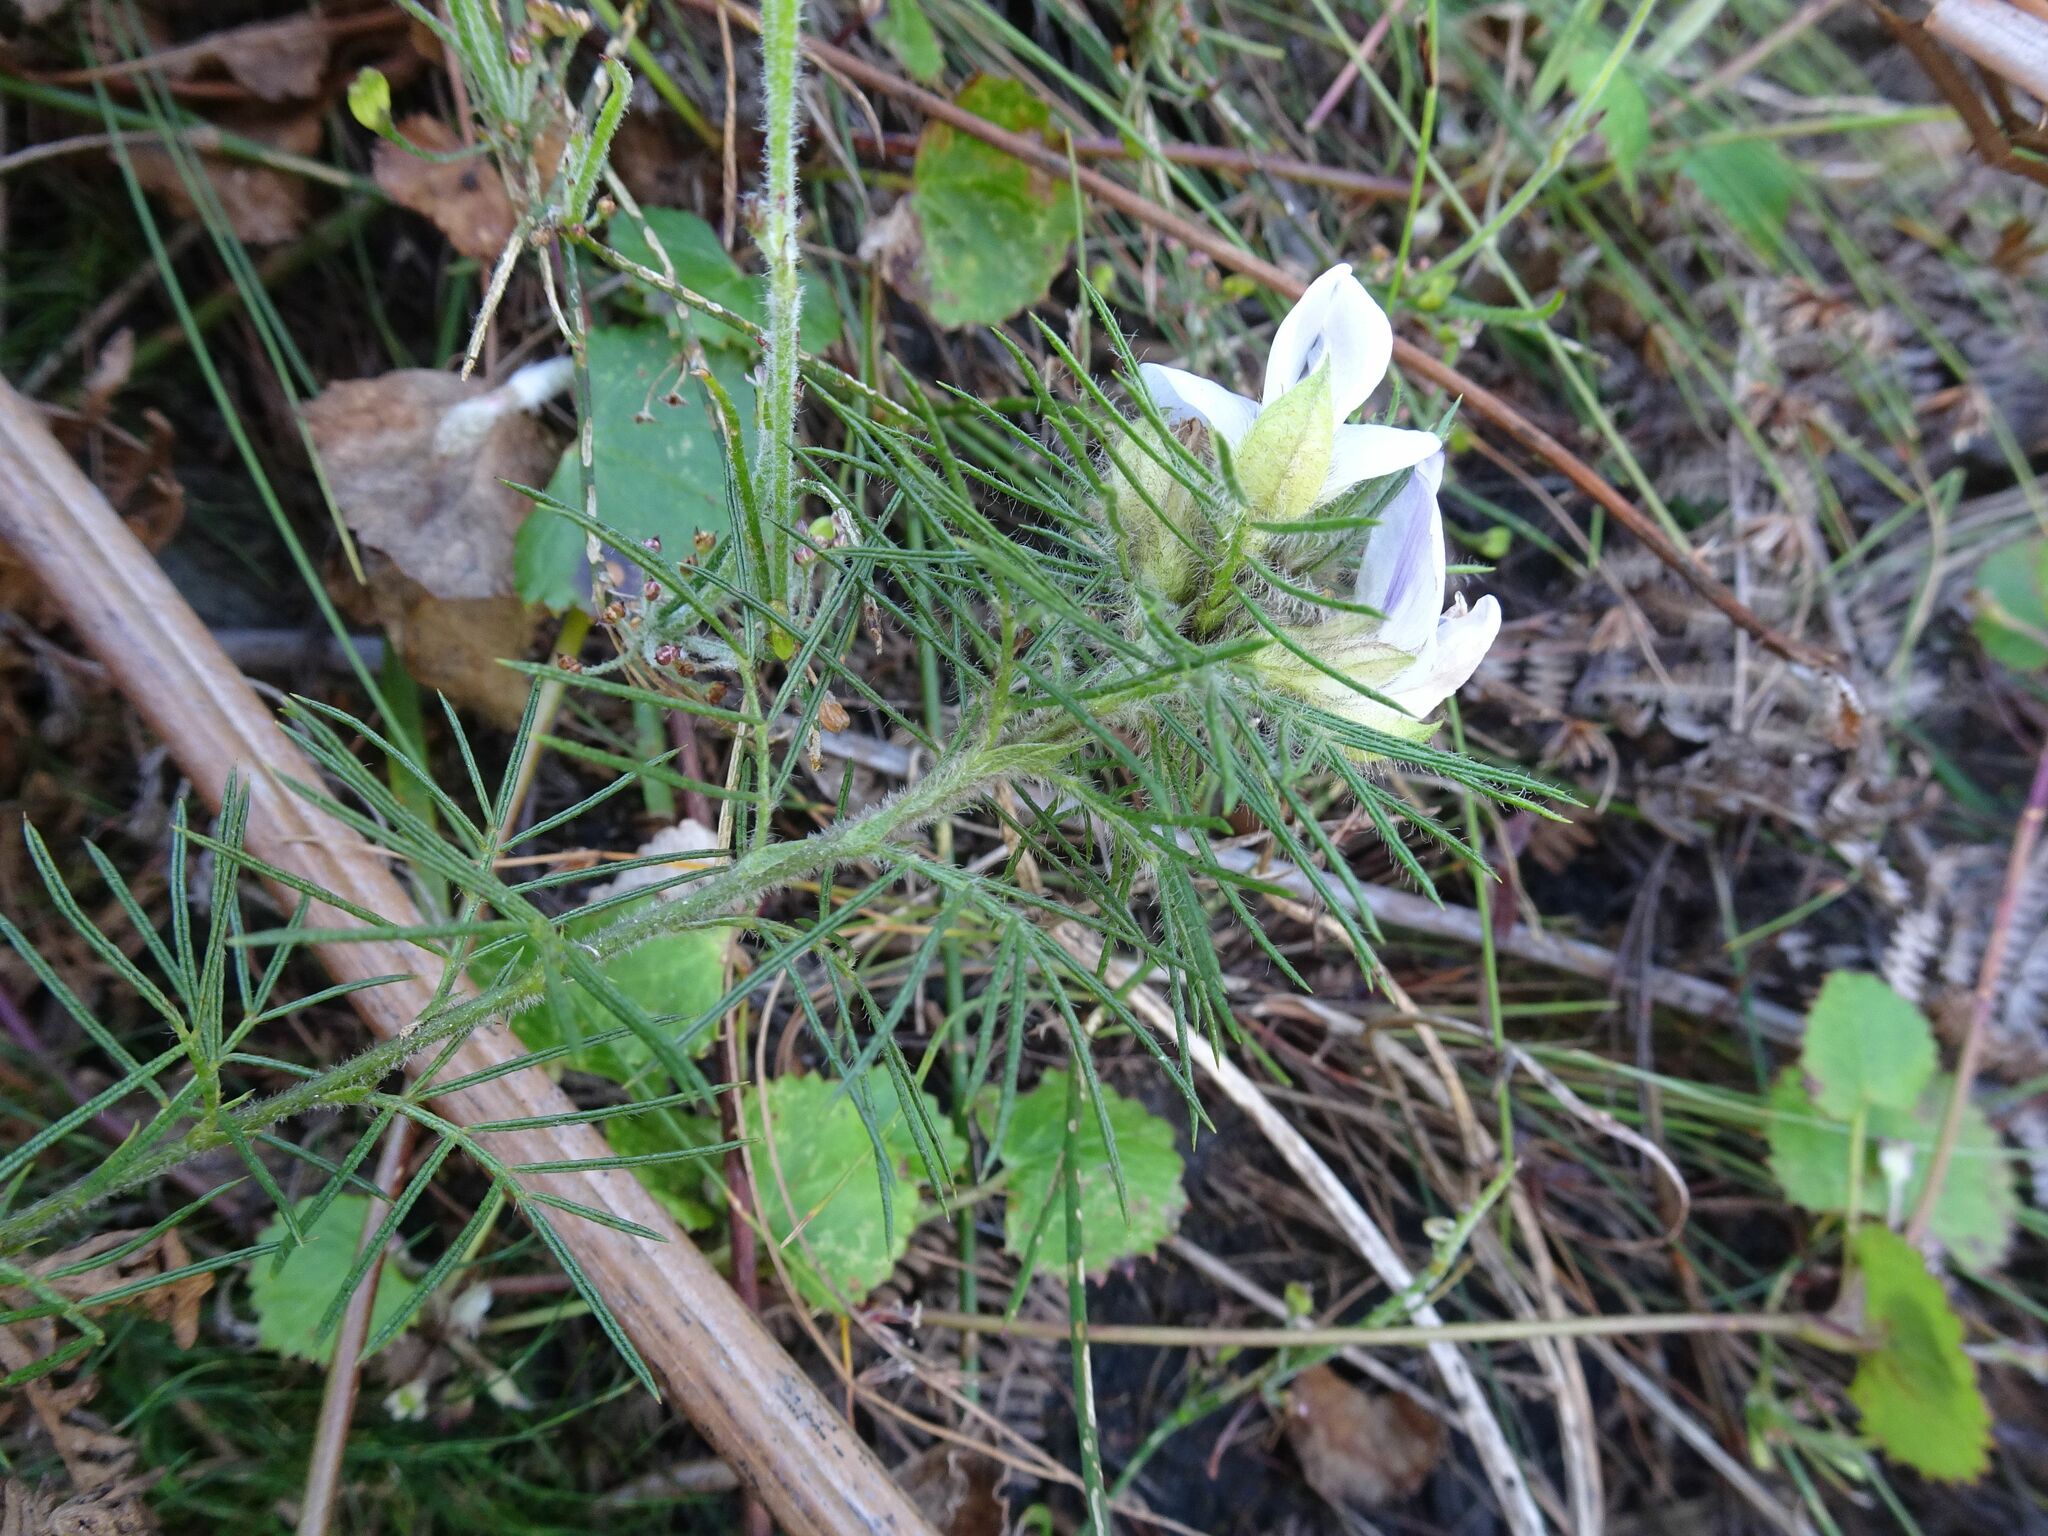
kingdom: Plantae
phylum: Tracheophyta
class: Magnoliopsida
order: Fabales
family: Fabaceae
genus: Psoralea
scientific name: Psoralea floccosa
